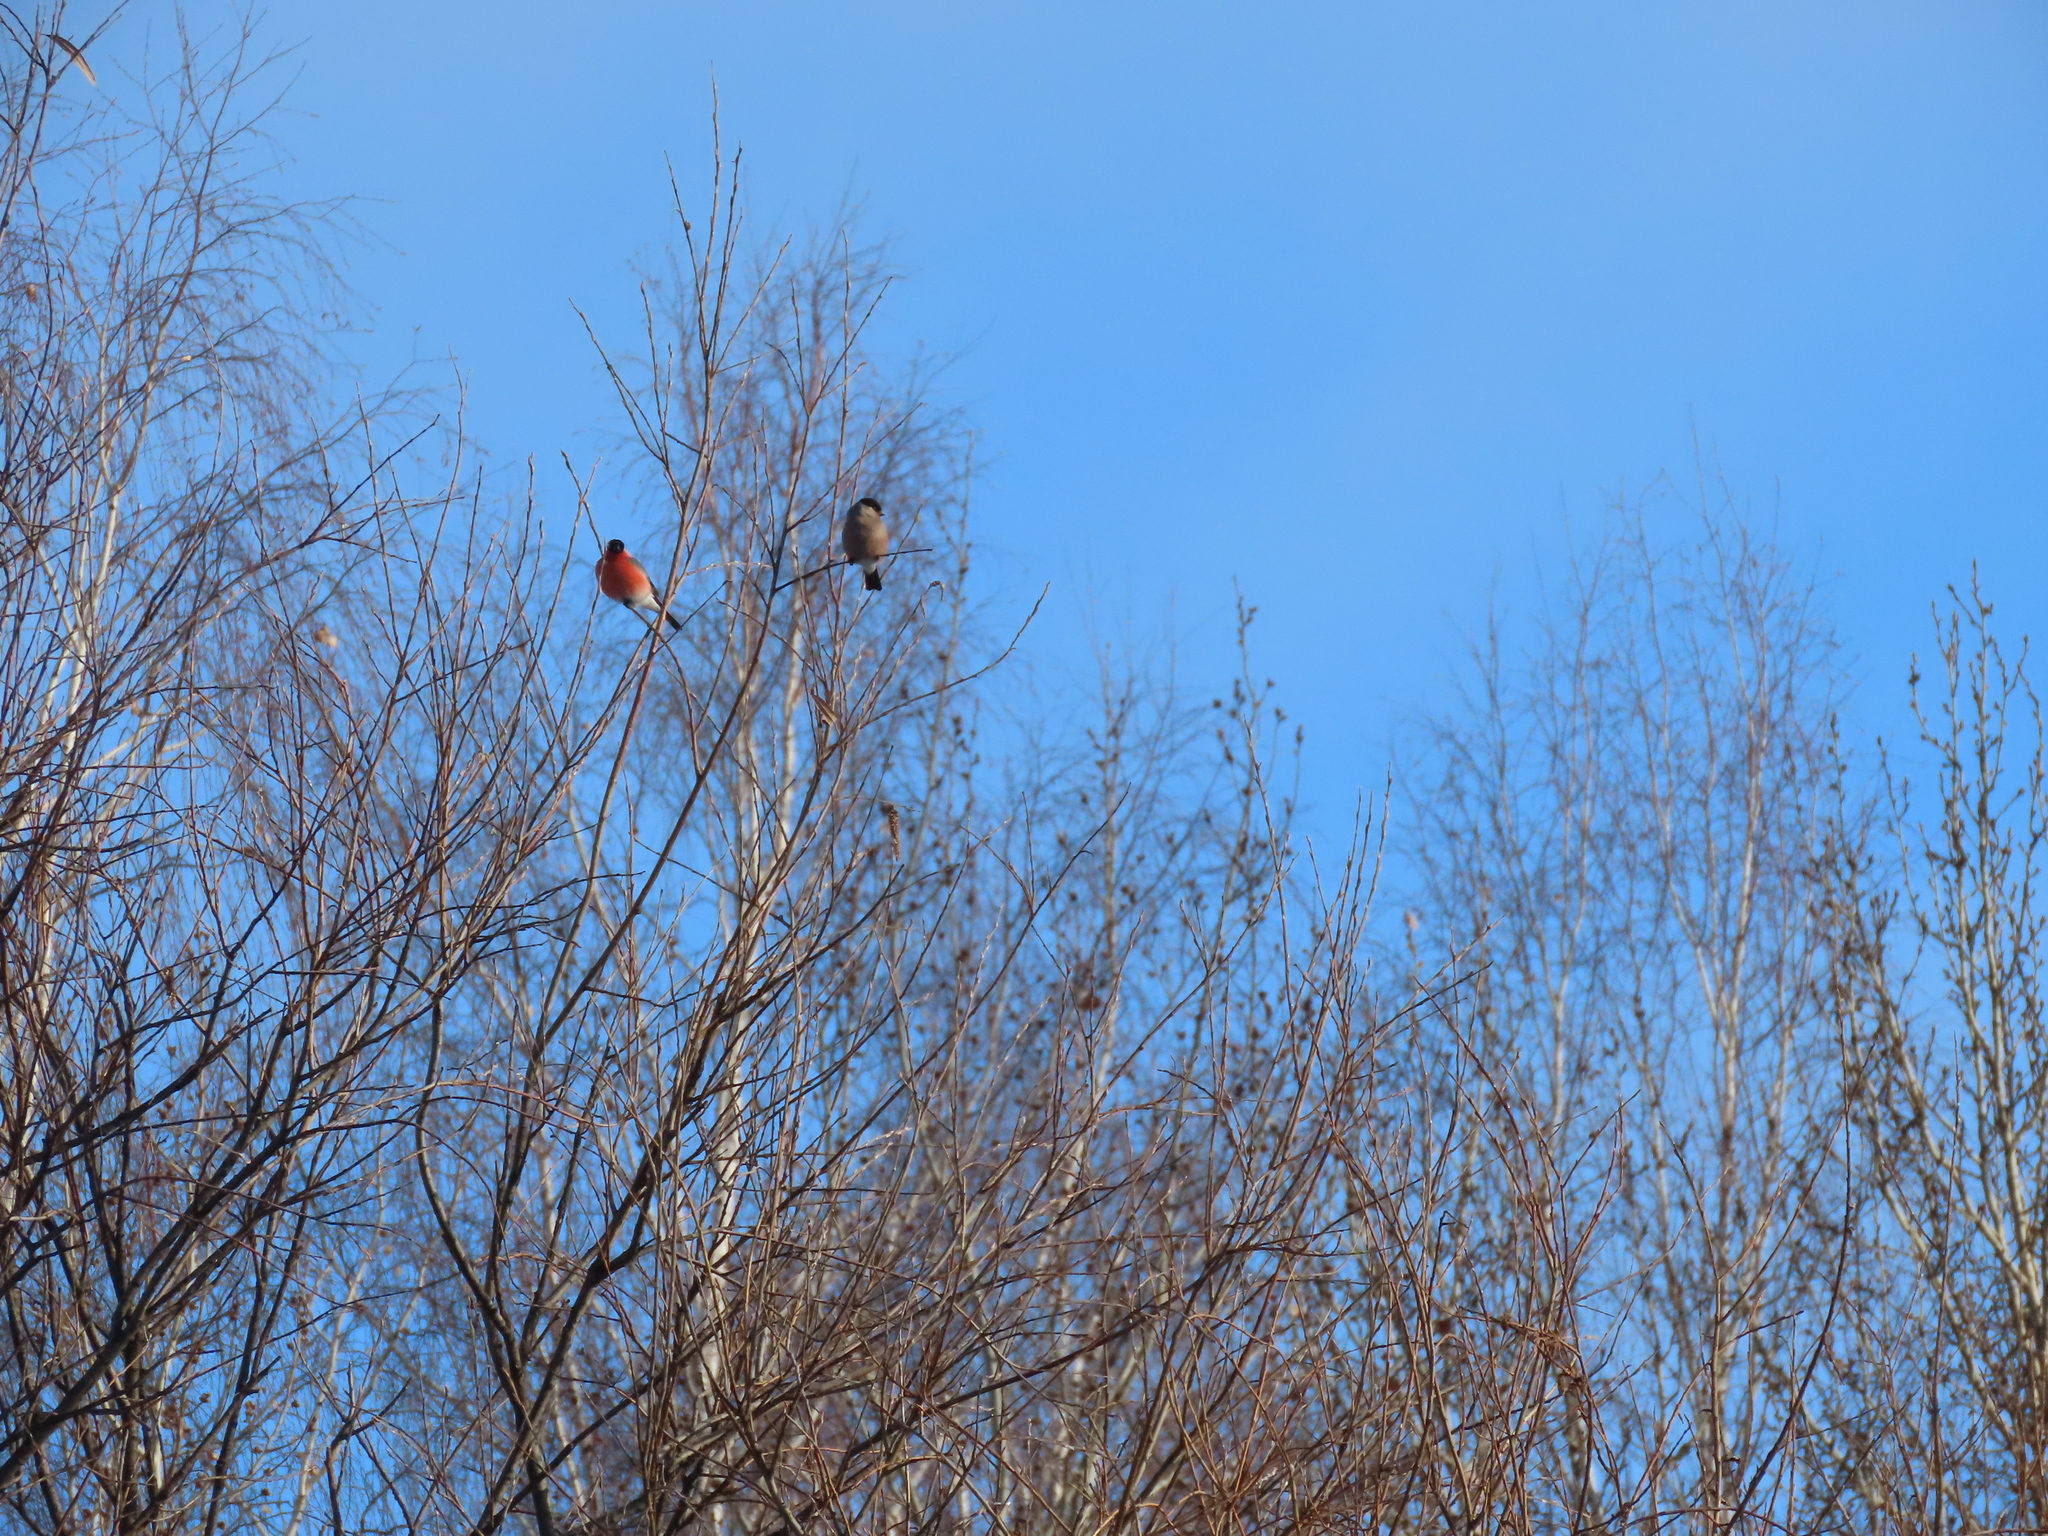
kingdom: Animalia
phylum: Chordata
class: Aves
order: Passeriformes
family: Fringillidae
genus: Pyrrhula
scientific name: Pyrrhula pyrrhula
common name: Eurasian bullfinch
